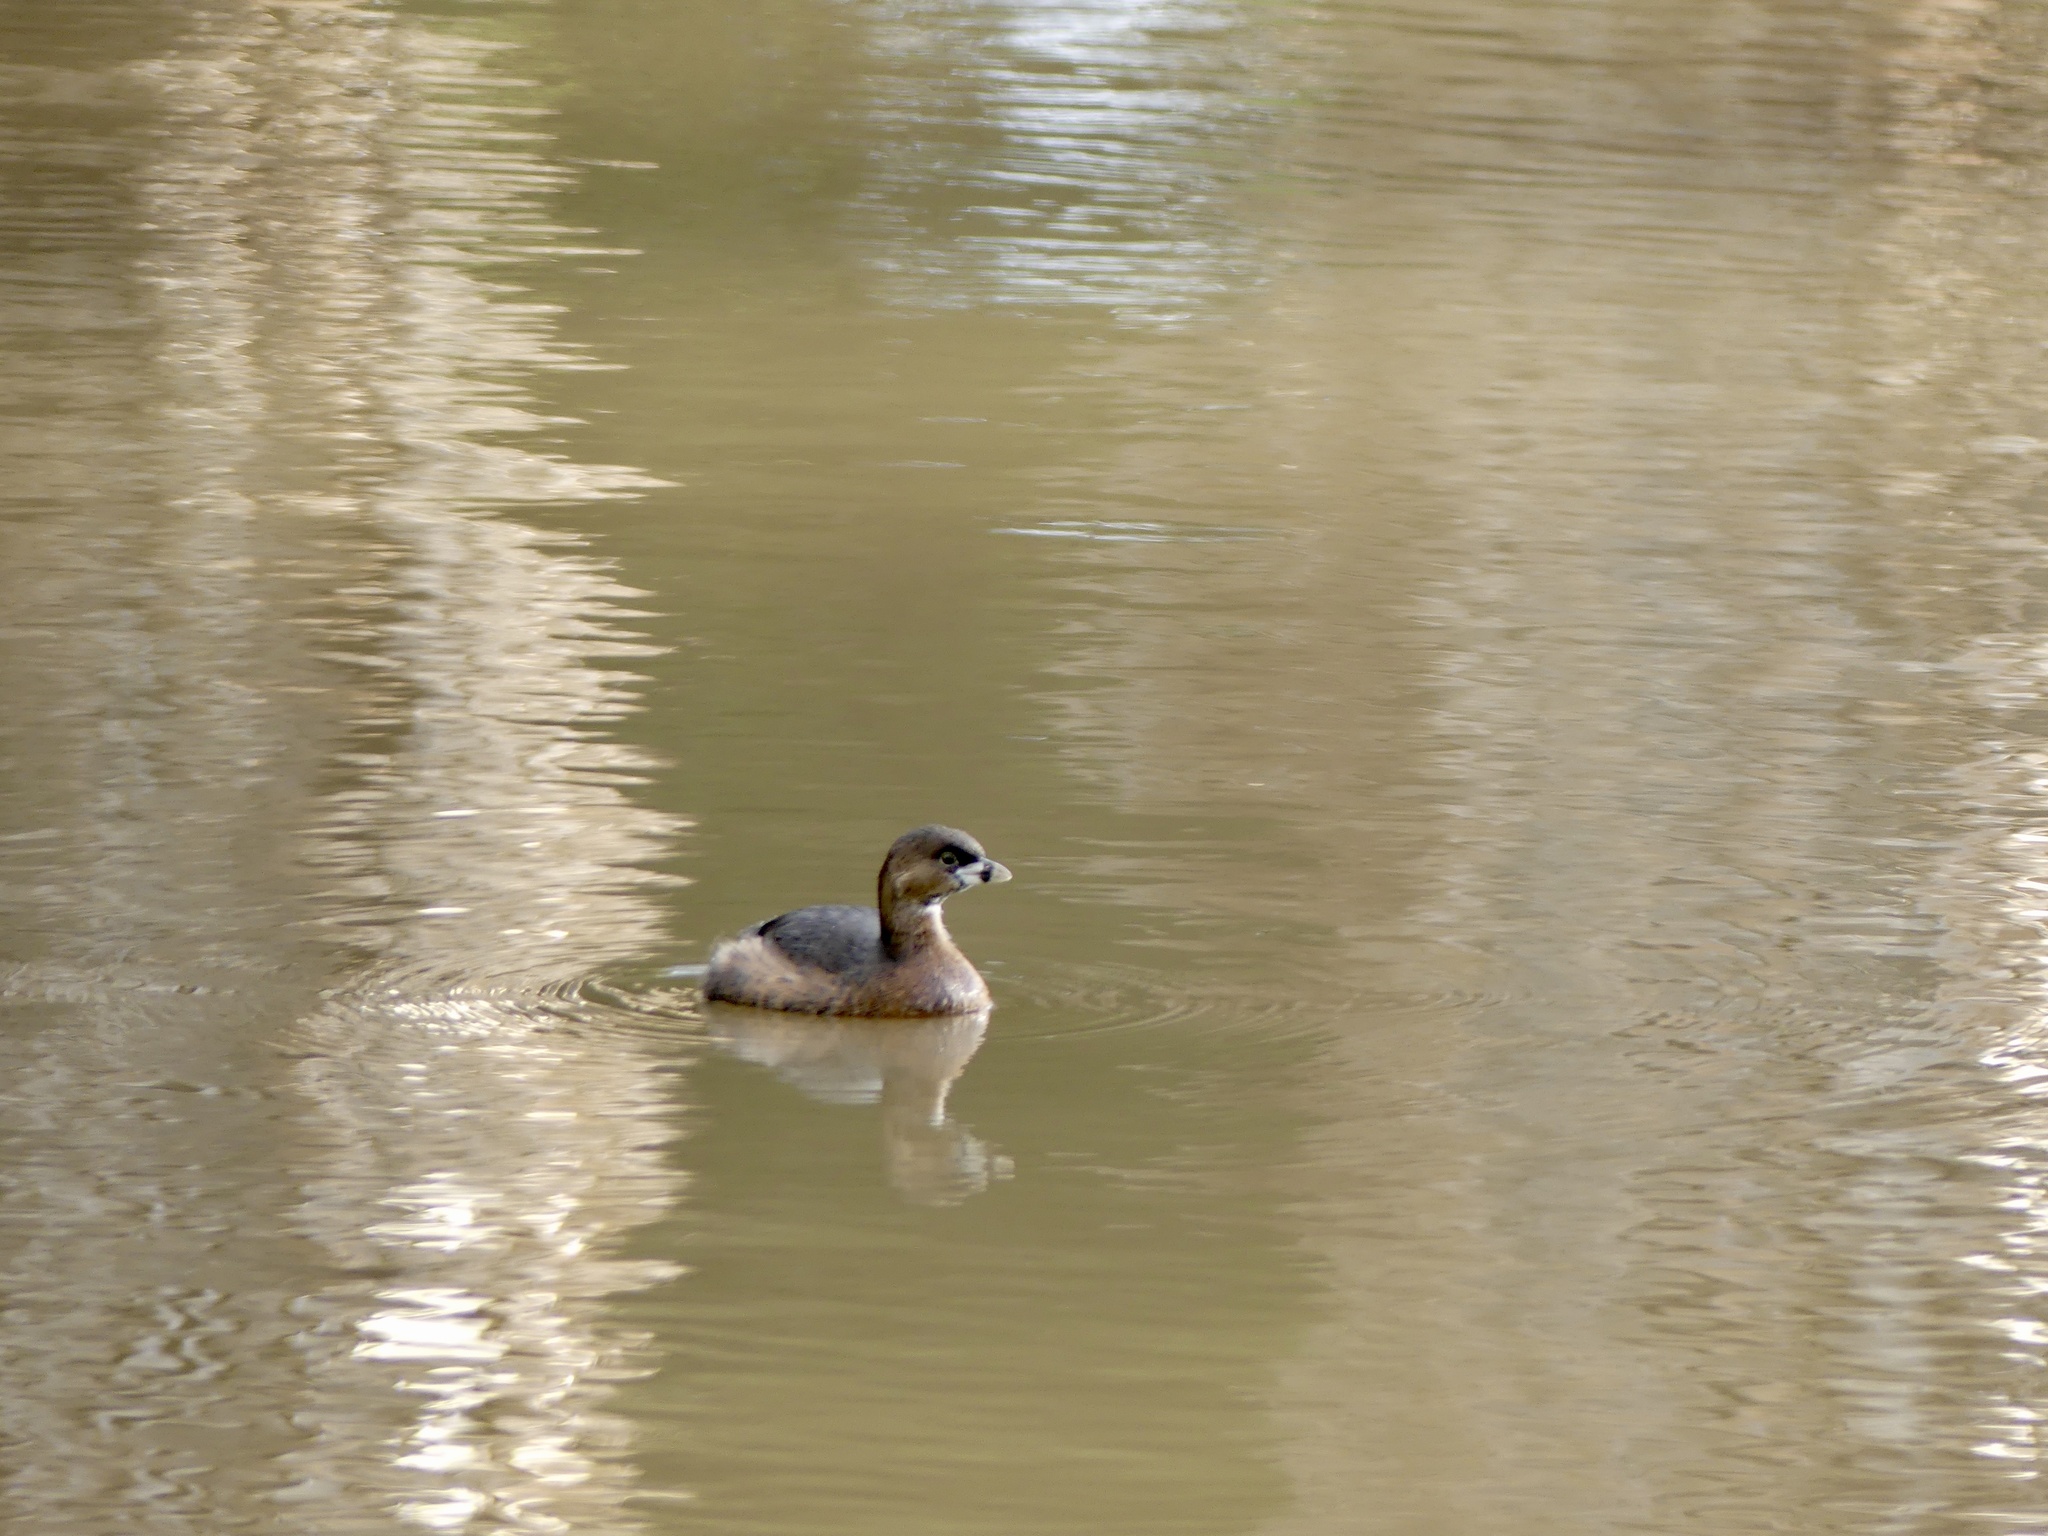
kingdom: Animalia
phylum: Chordata
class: Aves
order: Podicipediformes
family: Podicipedidae
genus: Podilymbus
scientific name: Podilymbus podiceps
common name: Pied-billed grebe
